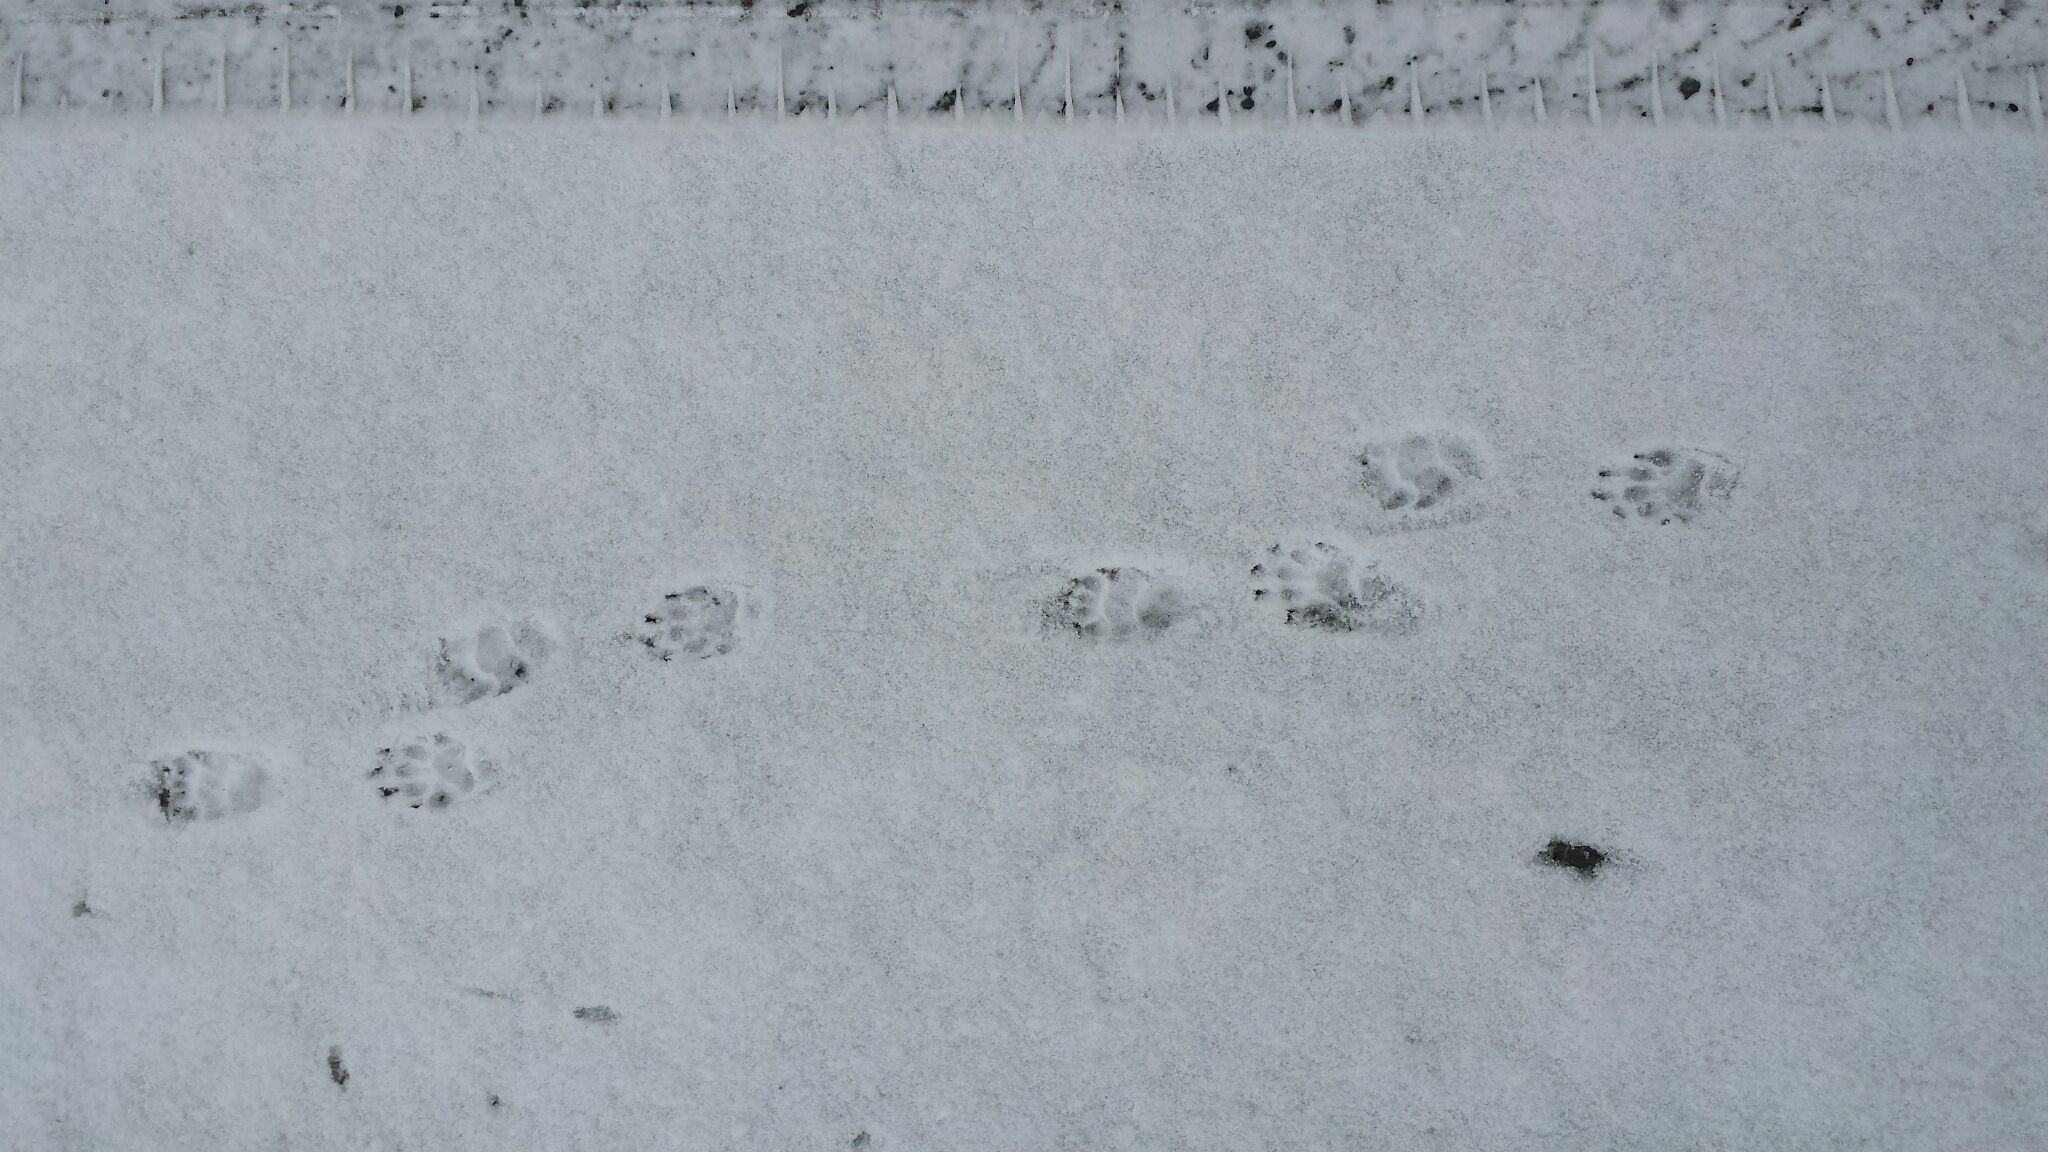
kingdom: Animalia
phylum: Chordata
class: Mammalia
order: Carnivora
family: Mephitidae
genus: Mephitis
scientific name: Mephitis mephitis
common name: Striped skunk
